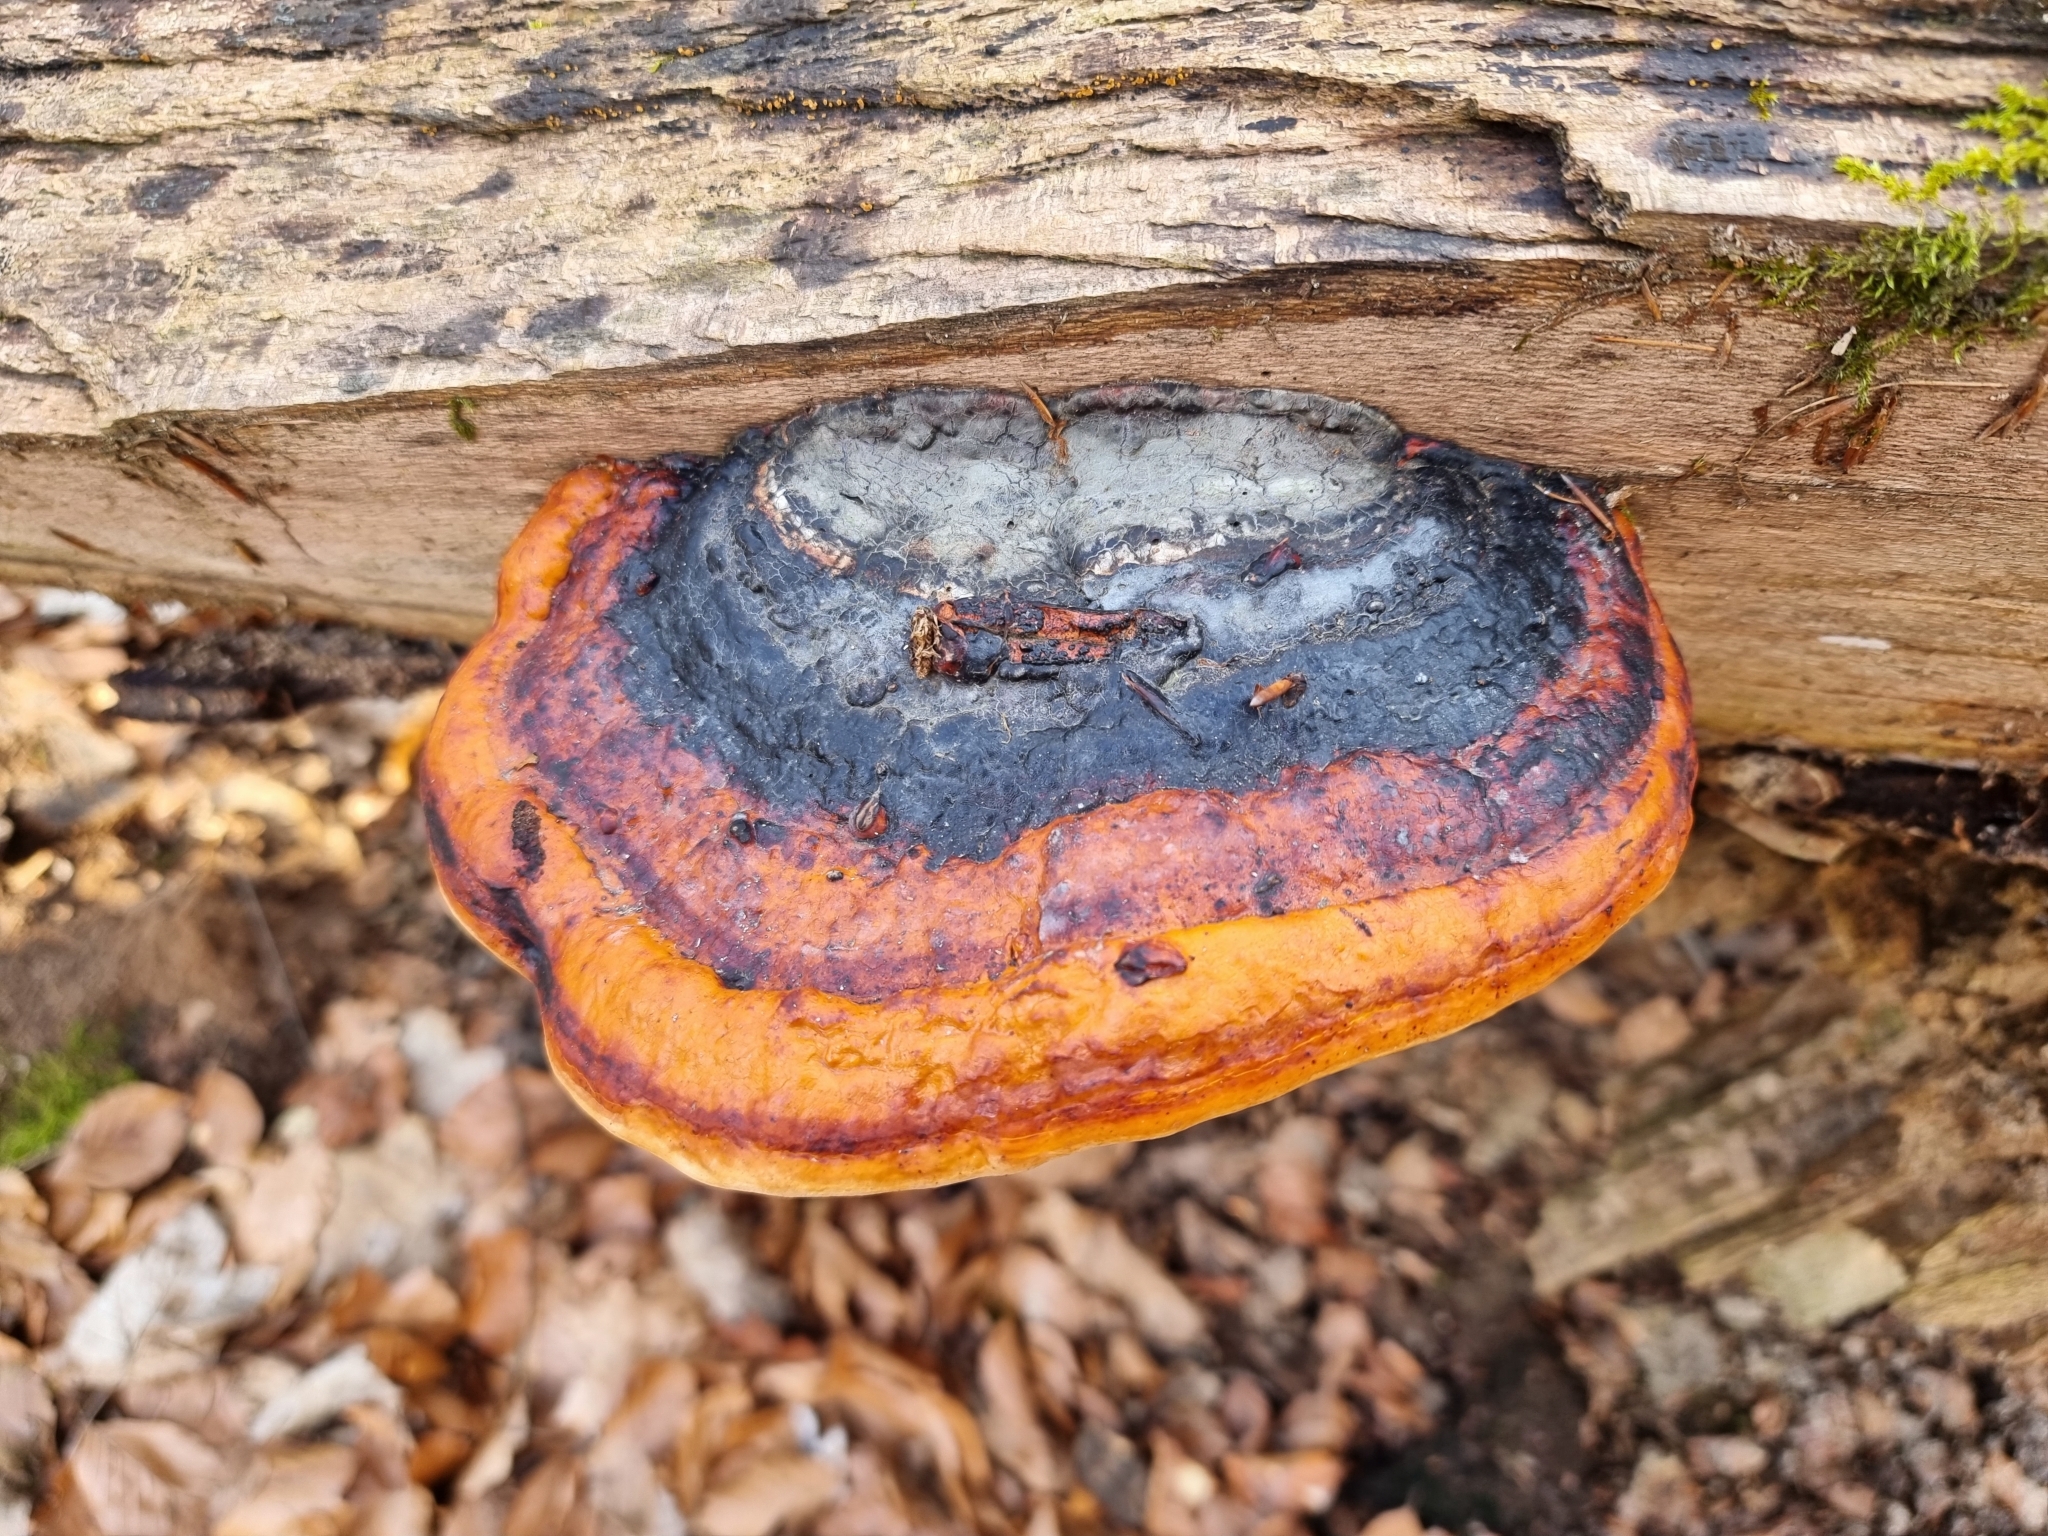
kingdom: Fungi
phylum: Basidiomycota
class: Agaricomycetes
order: Polyporales
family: Fomitopsidaceae
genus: Fomitopsis
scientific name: Fomitopsis pinicola
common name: Red-belted bracket
